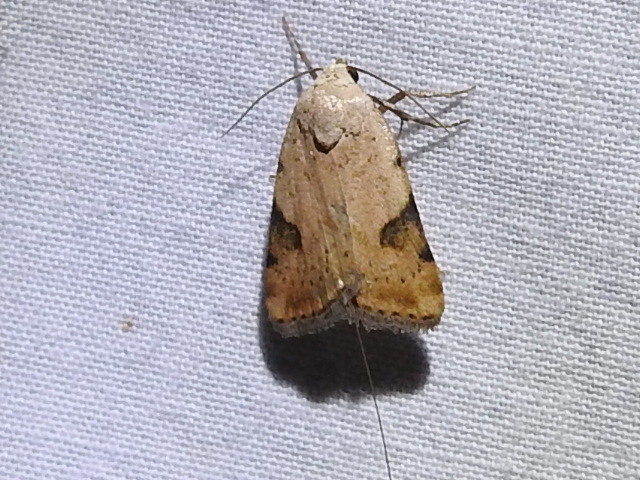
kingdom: Animalia
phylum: Arthropoda
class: Insecta
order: Lepidoptera
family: Noctuidae
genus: Micrathetis
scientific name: Micrathetis costiplaga
